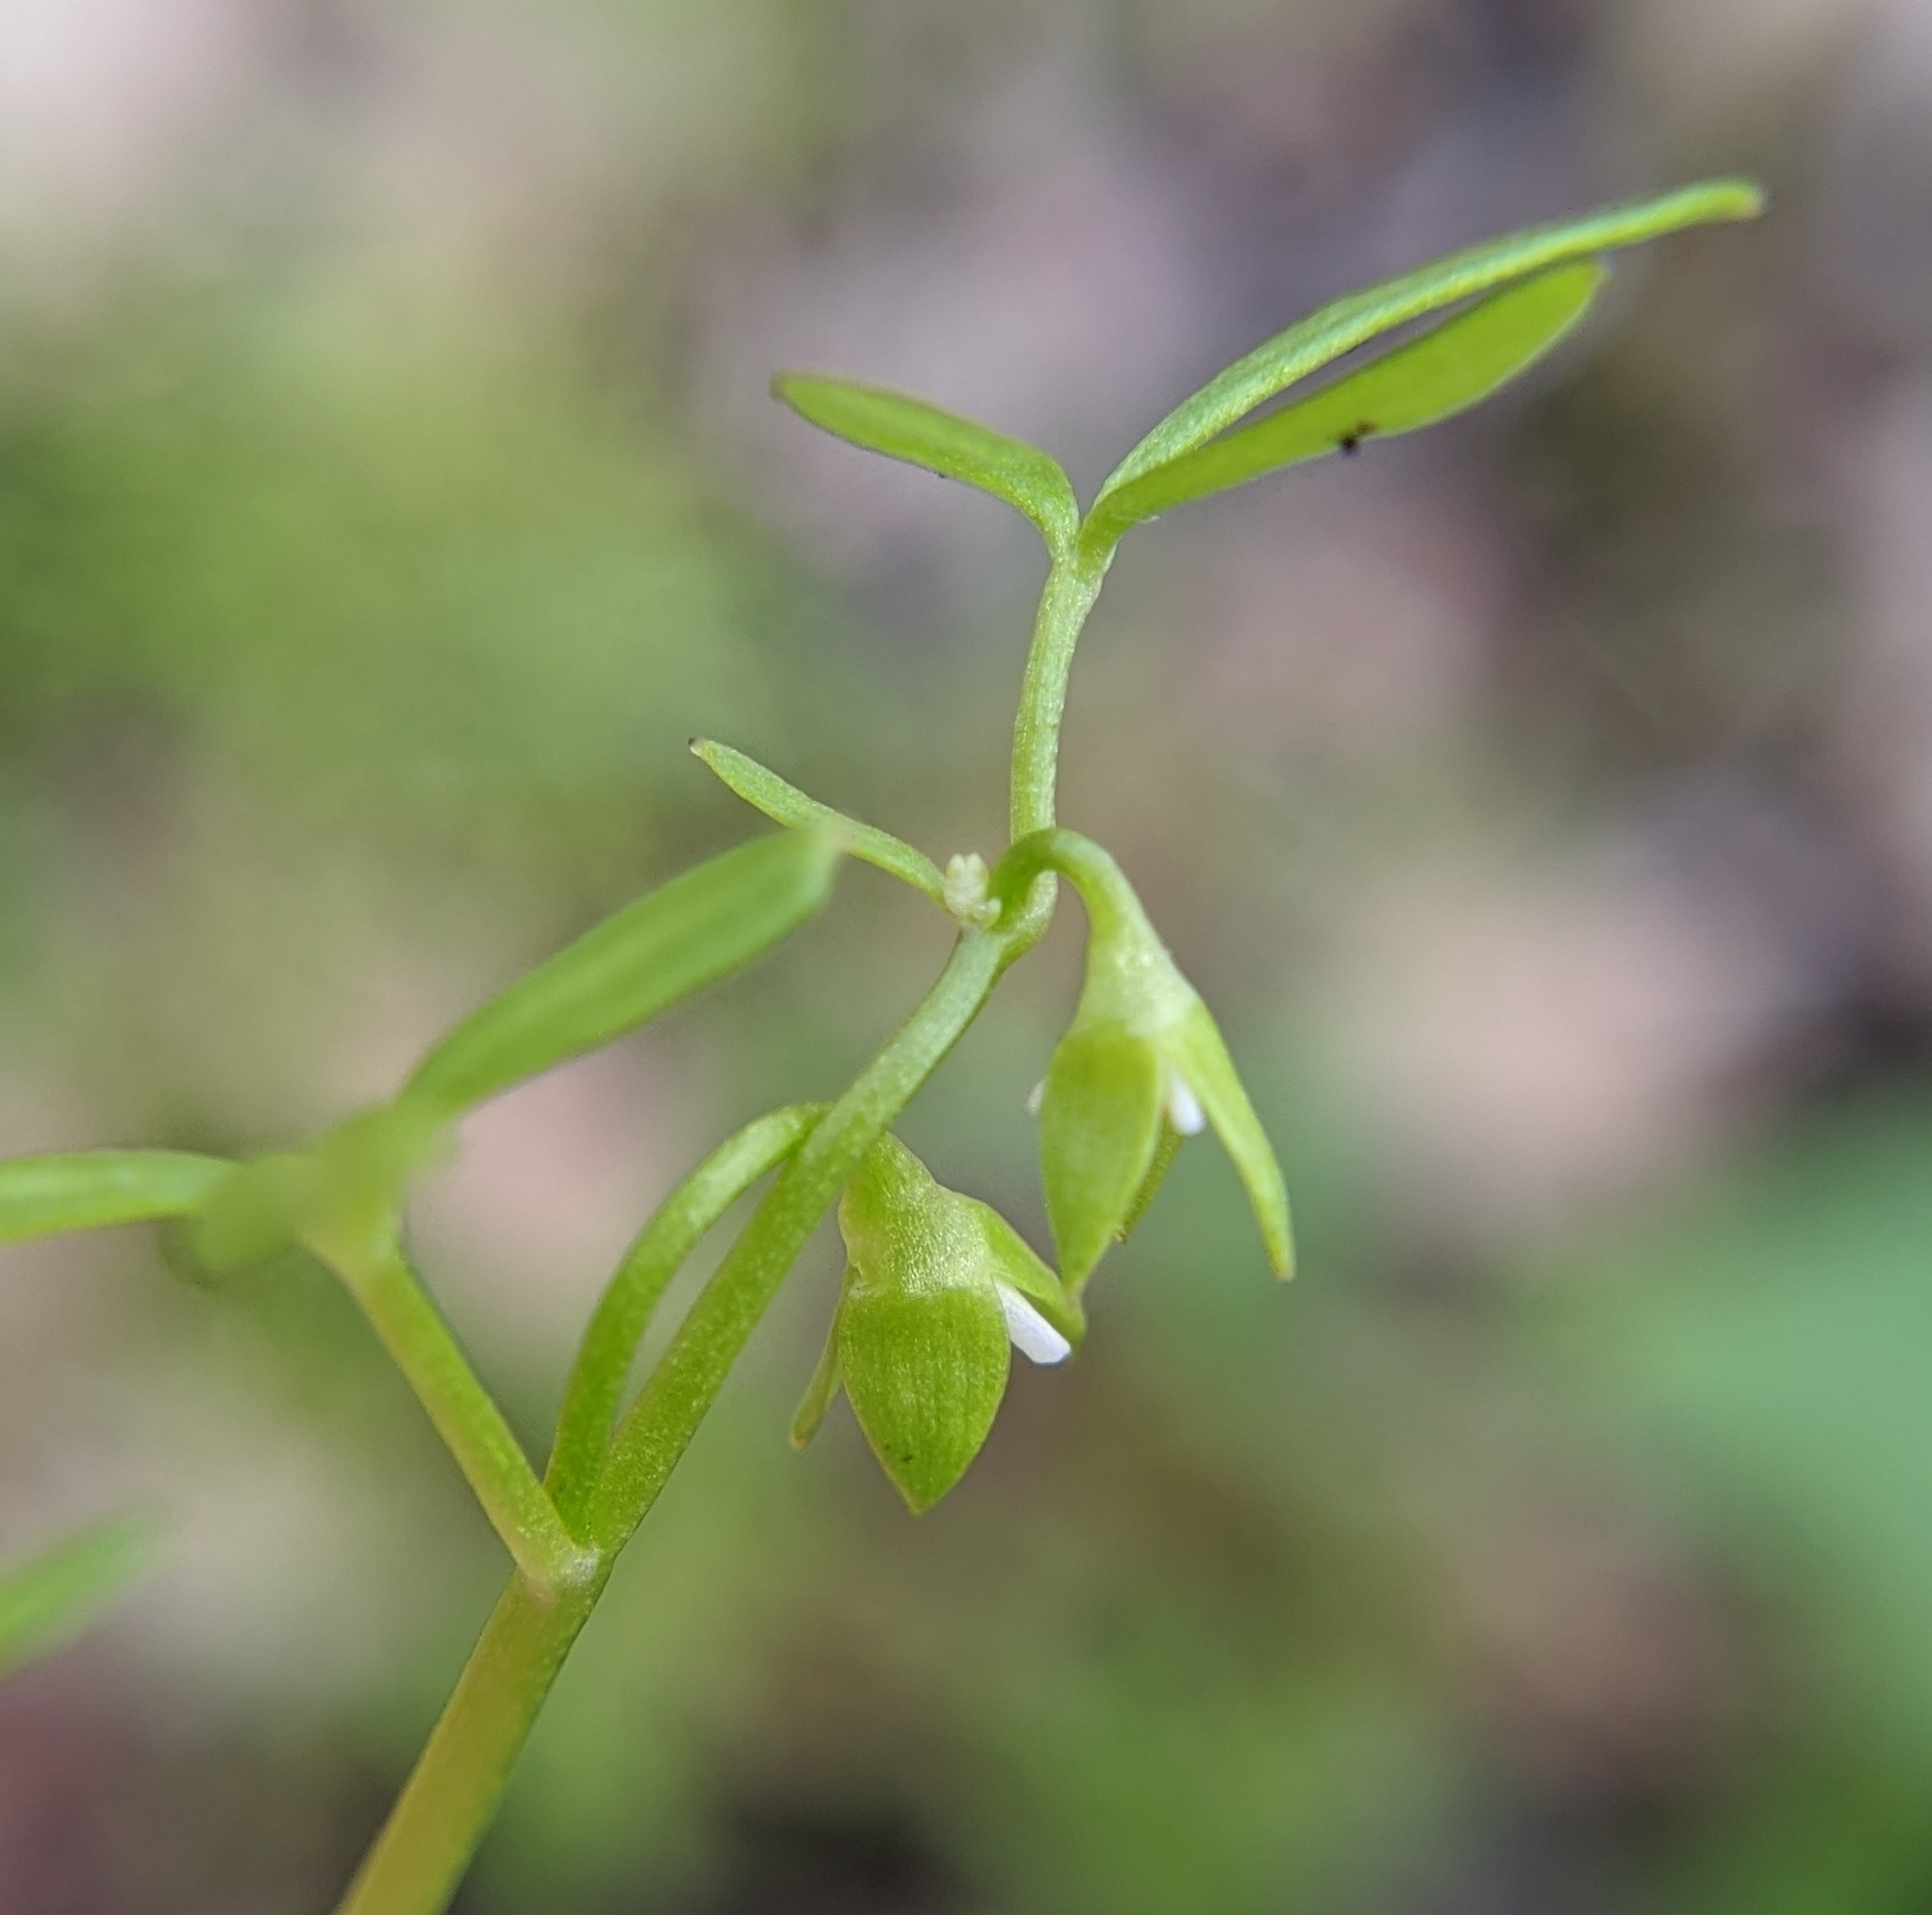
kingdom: Plantae
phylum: Tracheophyta
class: Magnoliopsida
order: Brassicales
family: Limnanthaceae
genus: Floerkea
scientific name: Floerkea proserpinacoides
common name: False mermaid
